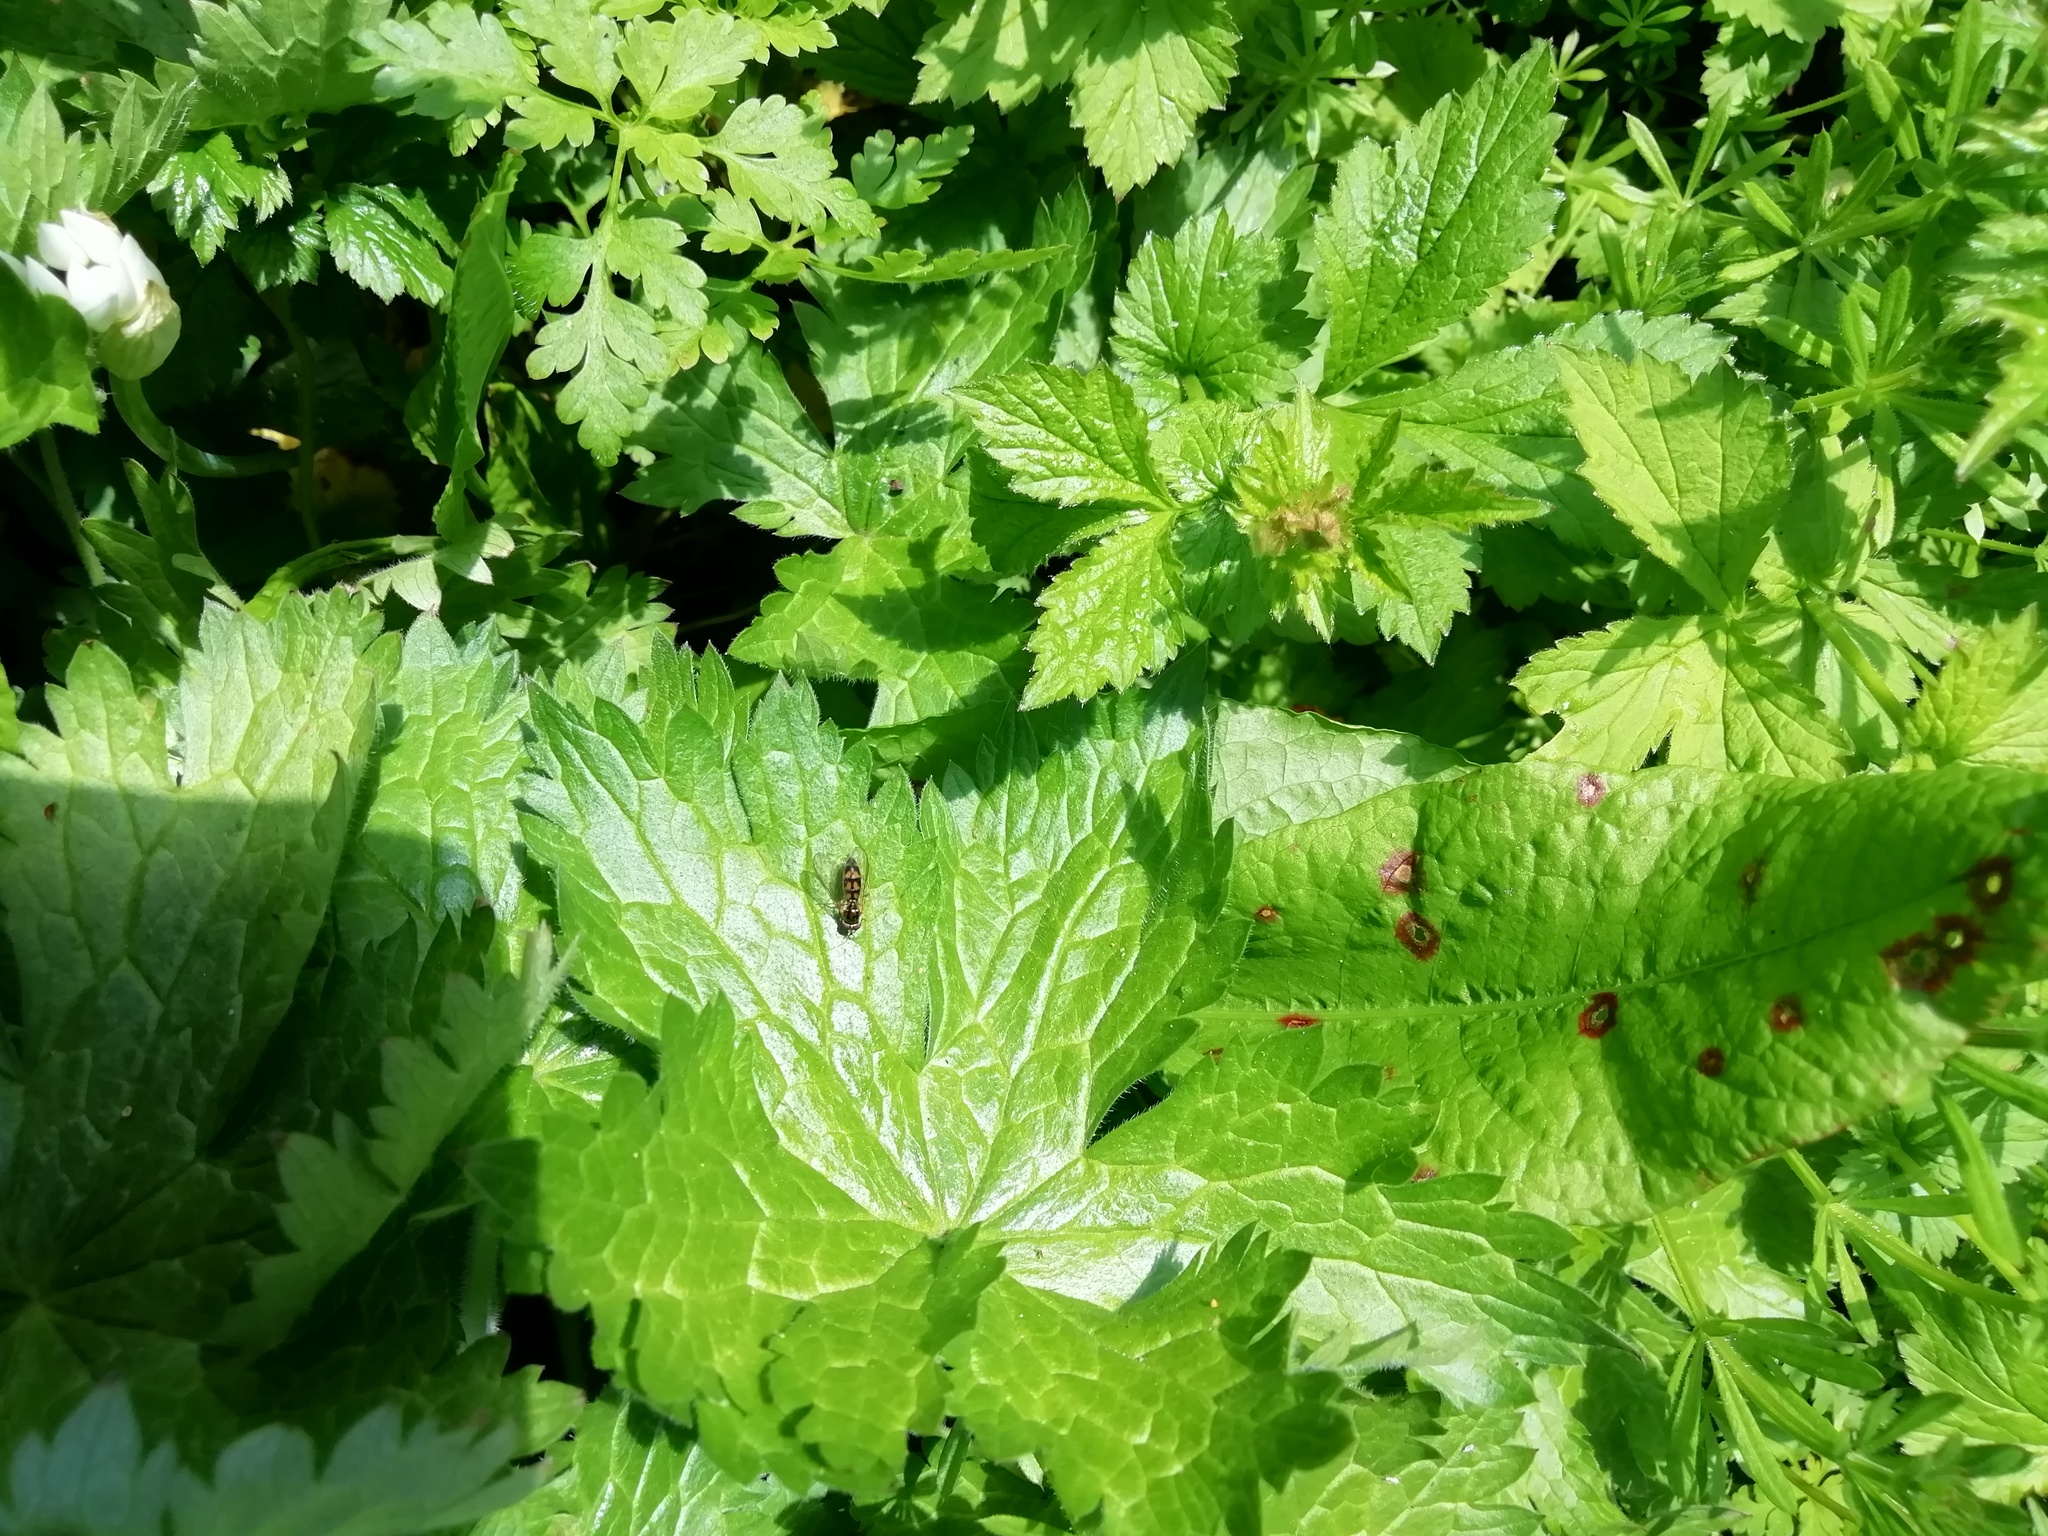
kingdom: Animalia
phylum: Arthropoda
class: Insecta
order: Diptera
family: Syrphidae
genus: Melanostoma
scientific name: Melanostoma
